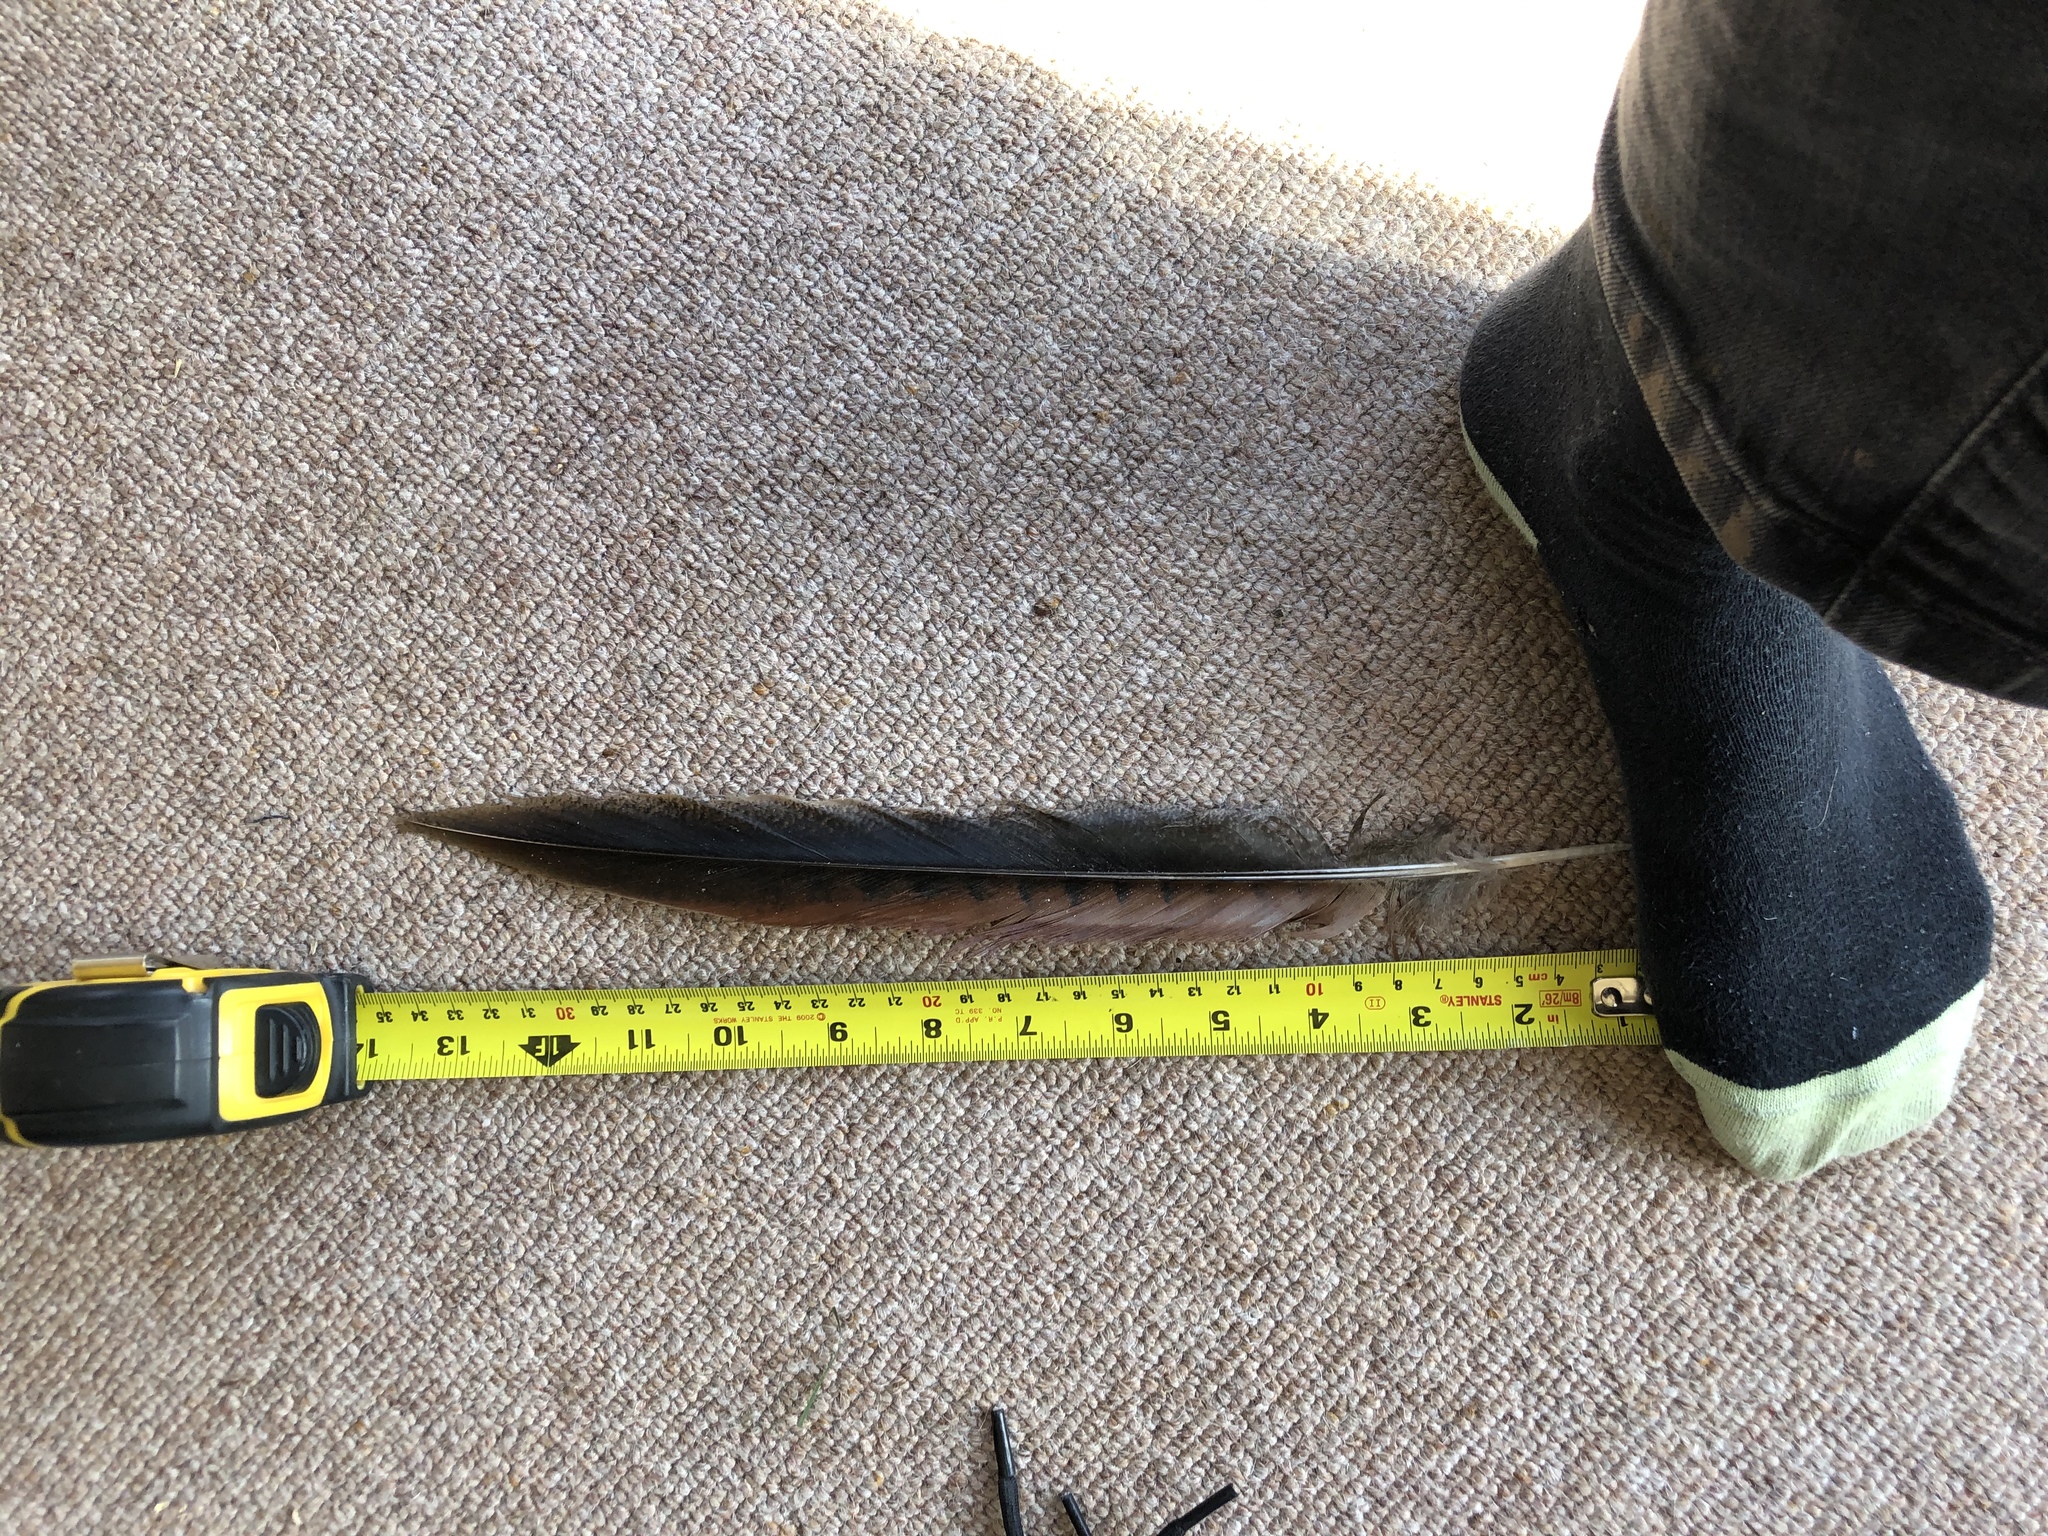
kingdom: Animalia
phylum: Chordata
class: Aves
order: Galliformes
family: Phasianidae
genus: Phasianus
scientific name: Phasianus colchicus
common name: Common pheasant
